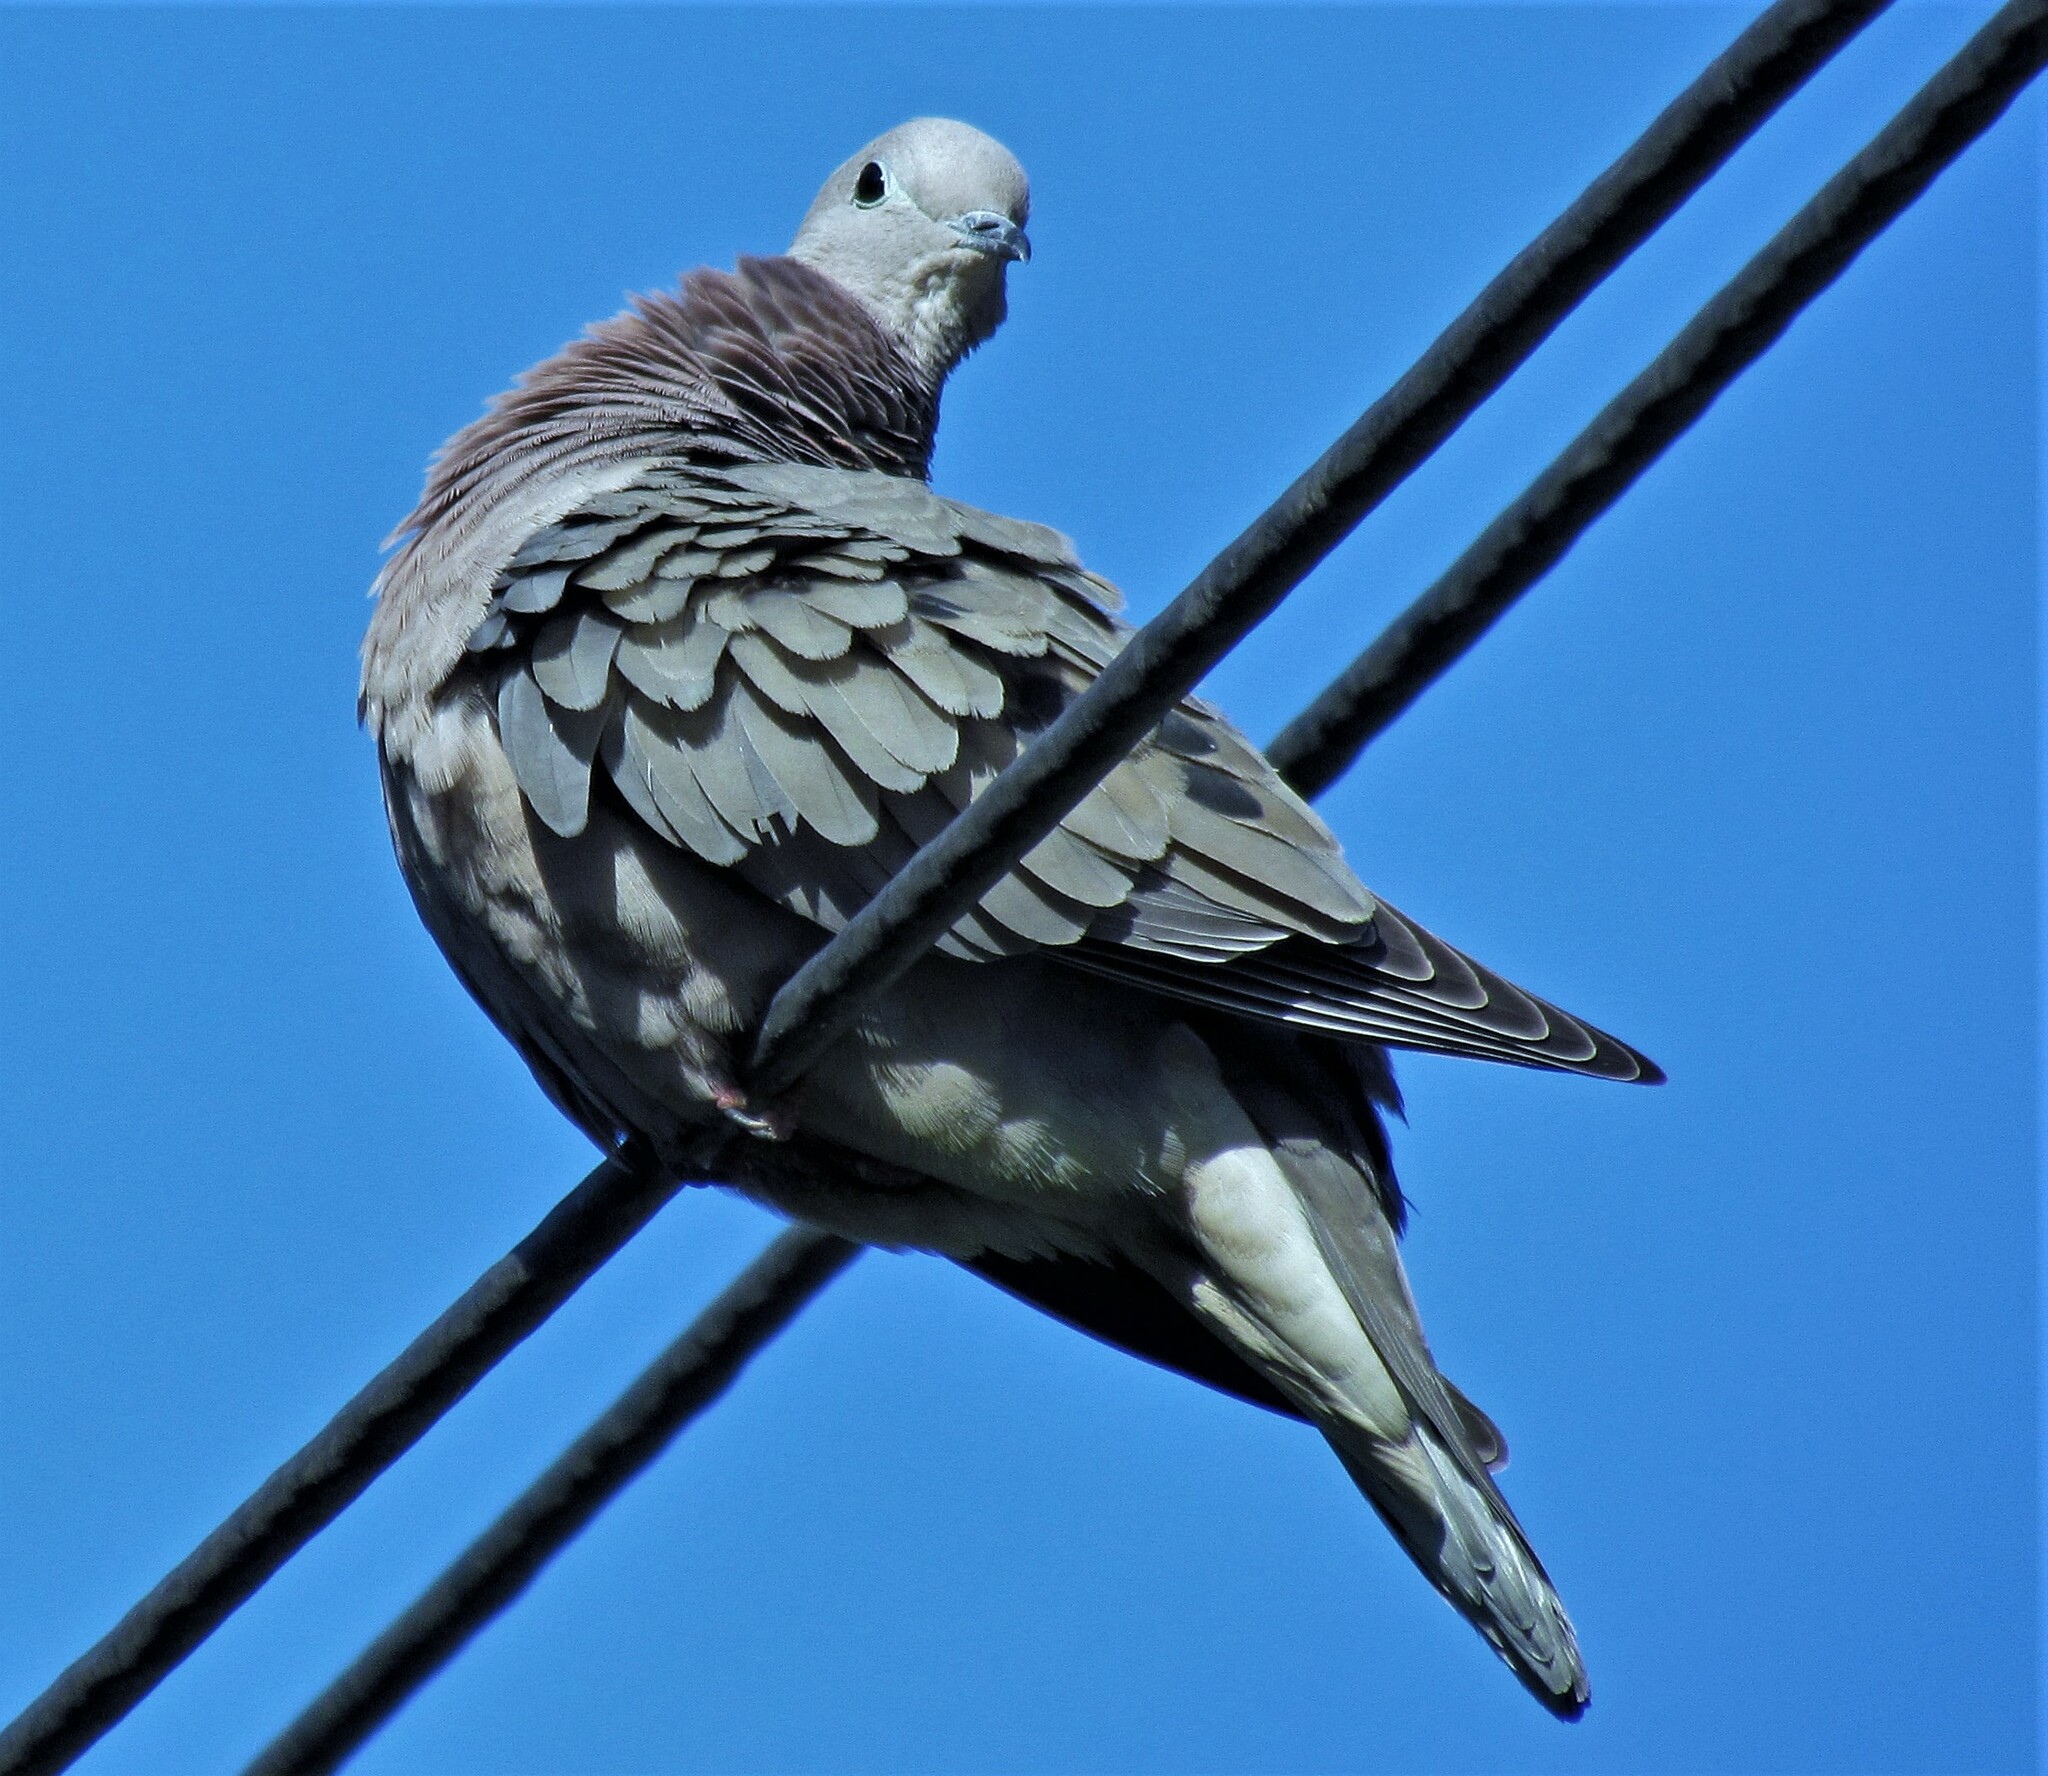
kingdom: Animalia
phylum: Chordata
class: Aves
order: Columbiformes
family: Columbidae
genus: Zenaida
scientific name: Zenaida auriculata
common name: Eared dove
